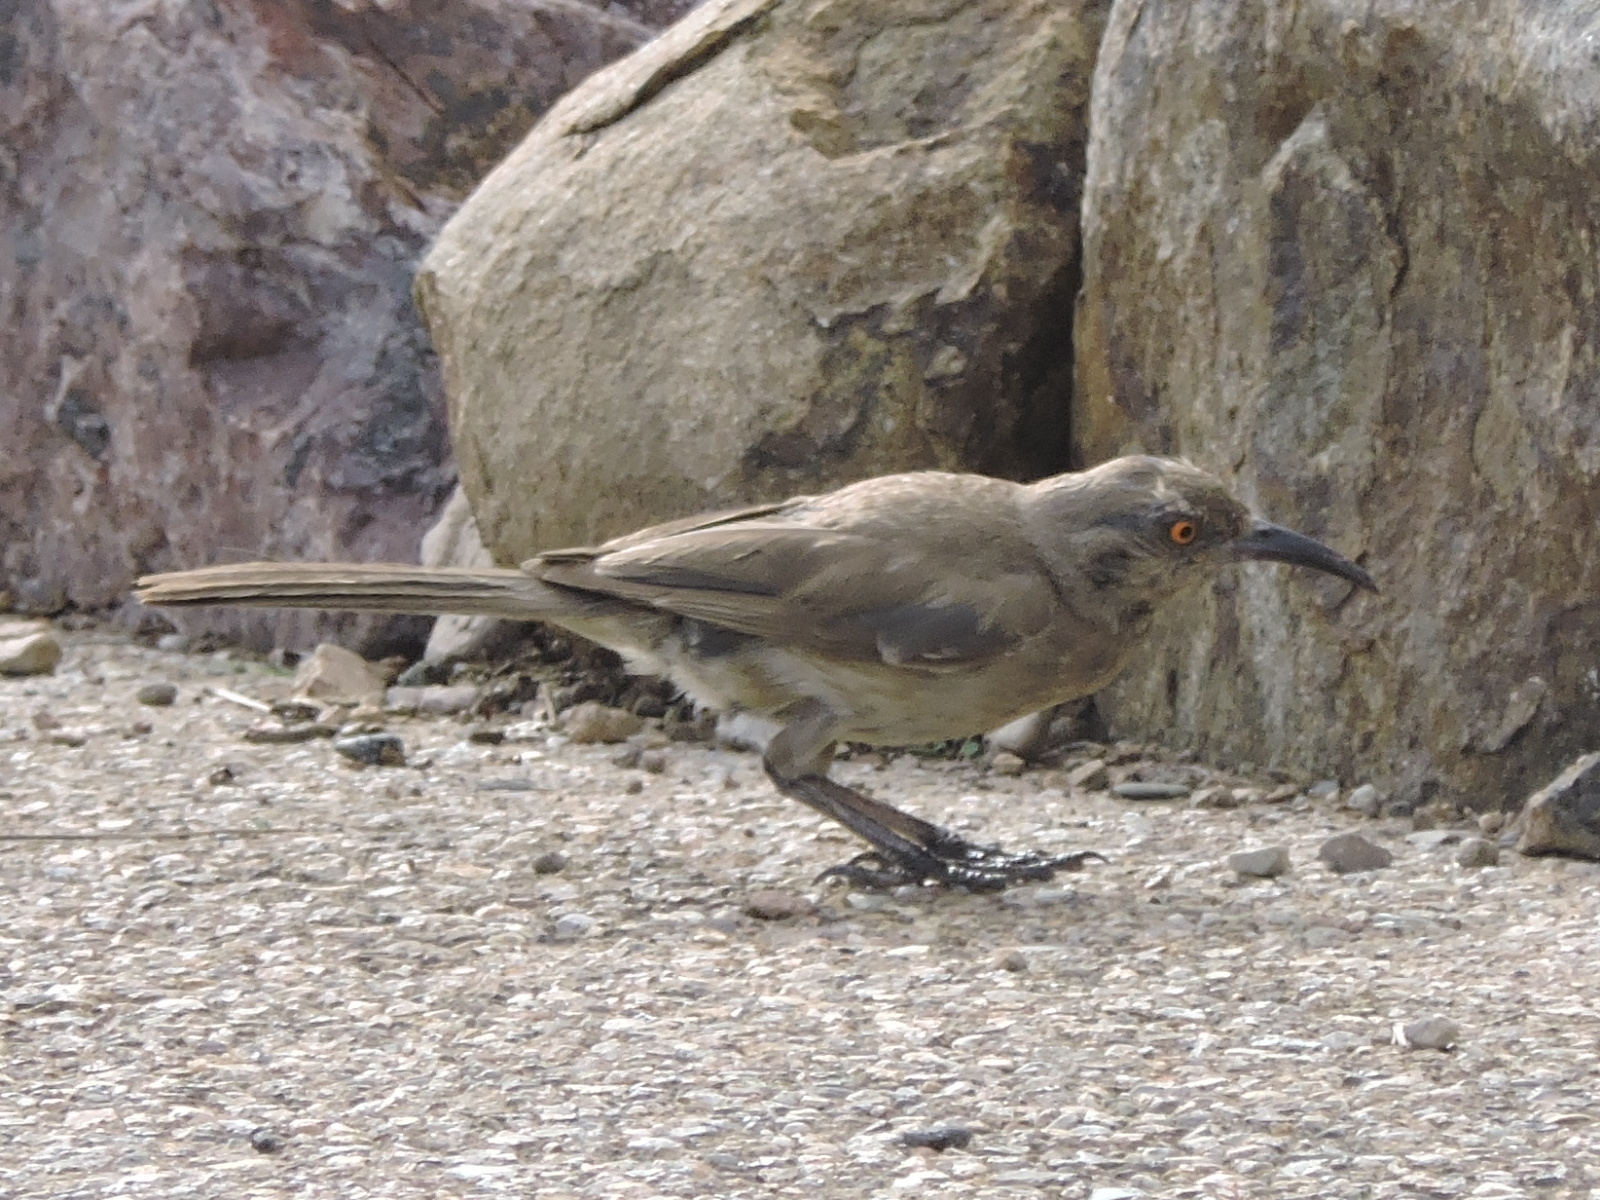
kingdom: Animalia
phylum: Chordata
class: Aves
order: Passeriformes
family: Mimidae
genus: Toxostoma
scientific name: Toxostoma curvirostre
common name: Curve-billed thrasher
